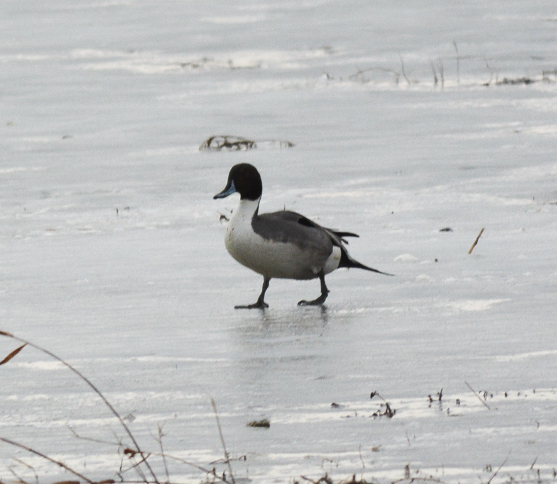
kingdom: Animalia
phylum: Chordata
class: Aves
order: Anseriformes
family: Anatidae
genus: Anas
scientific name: Anas acuta
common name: Northern pintail
